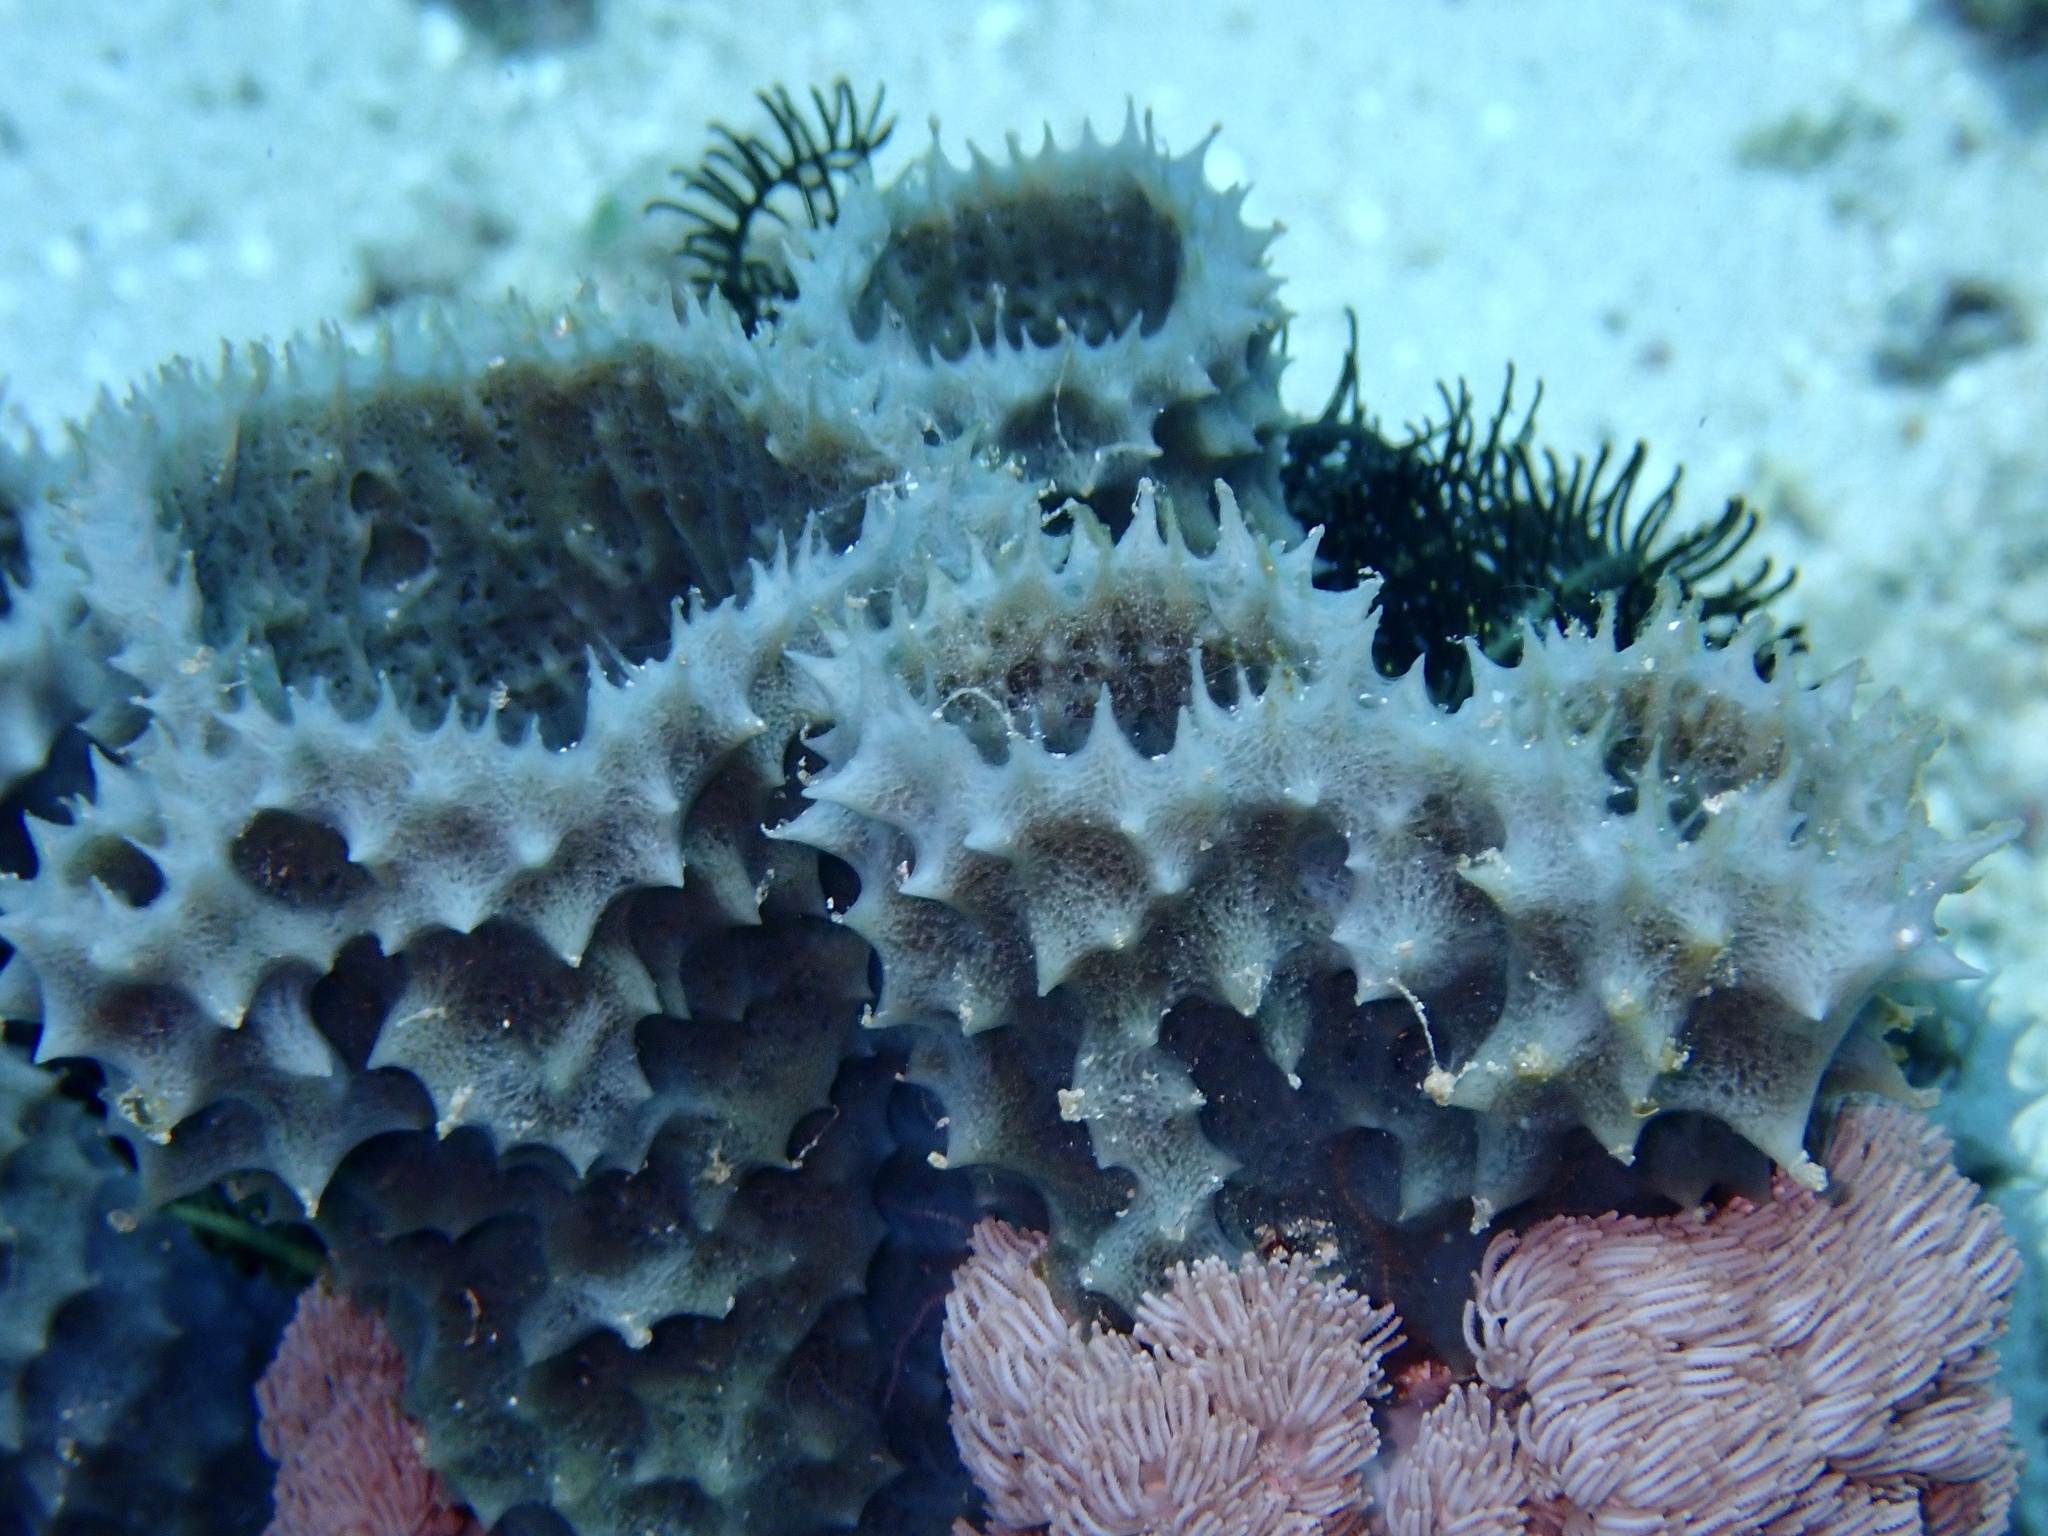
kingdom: Animalia
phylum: Porifera
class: Demospongiae
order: Haplosclerida
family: Callyspongiidae
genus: Callyspongia
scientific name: Callyspongia aerizusa
